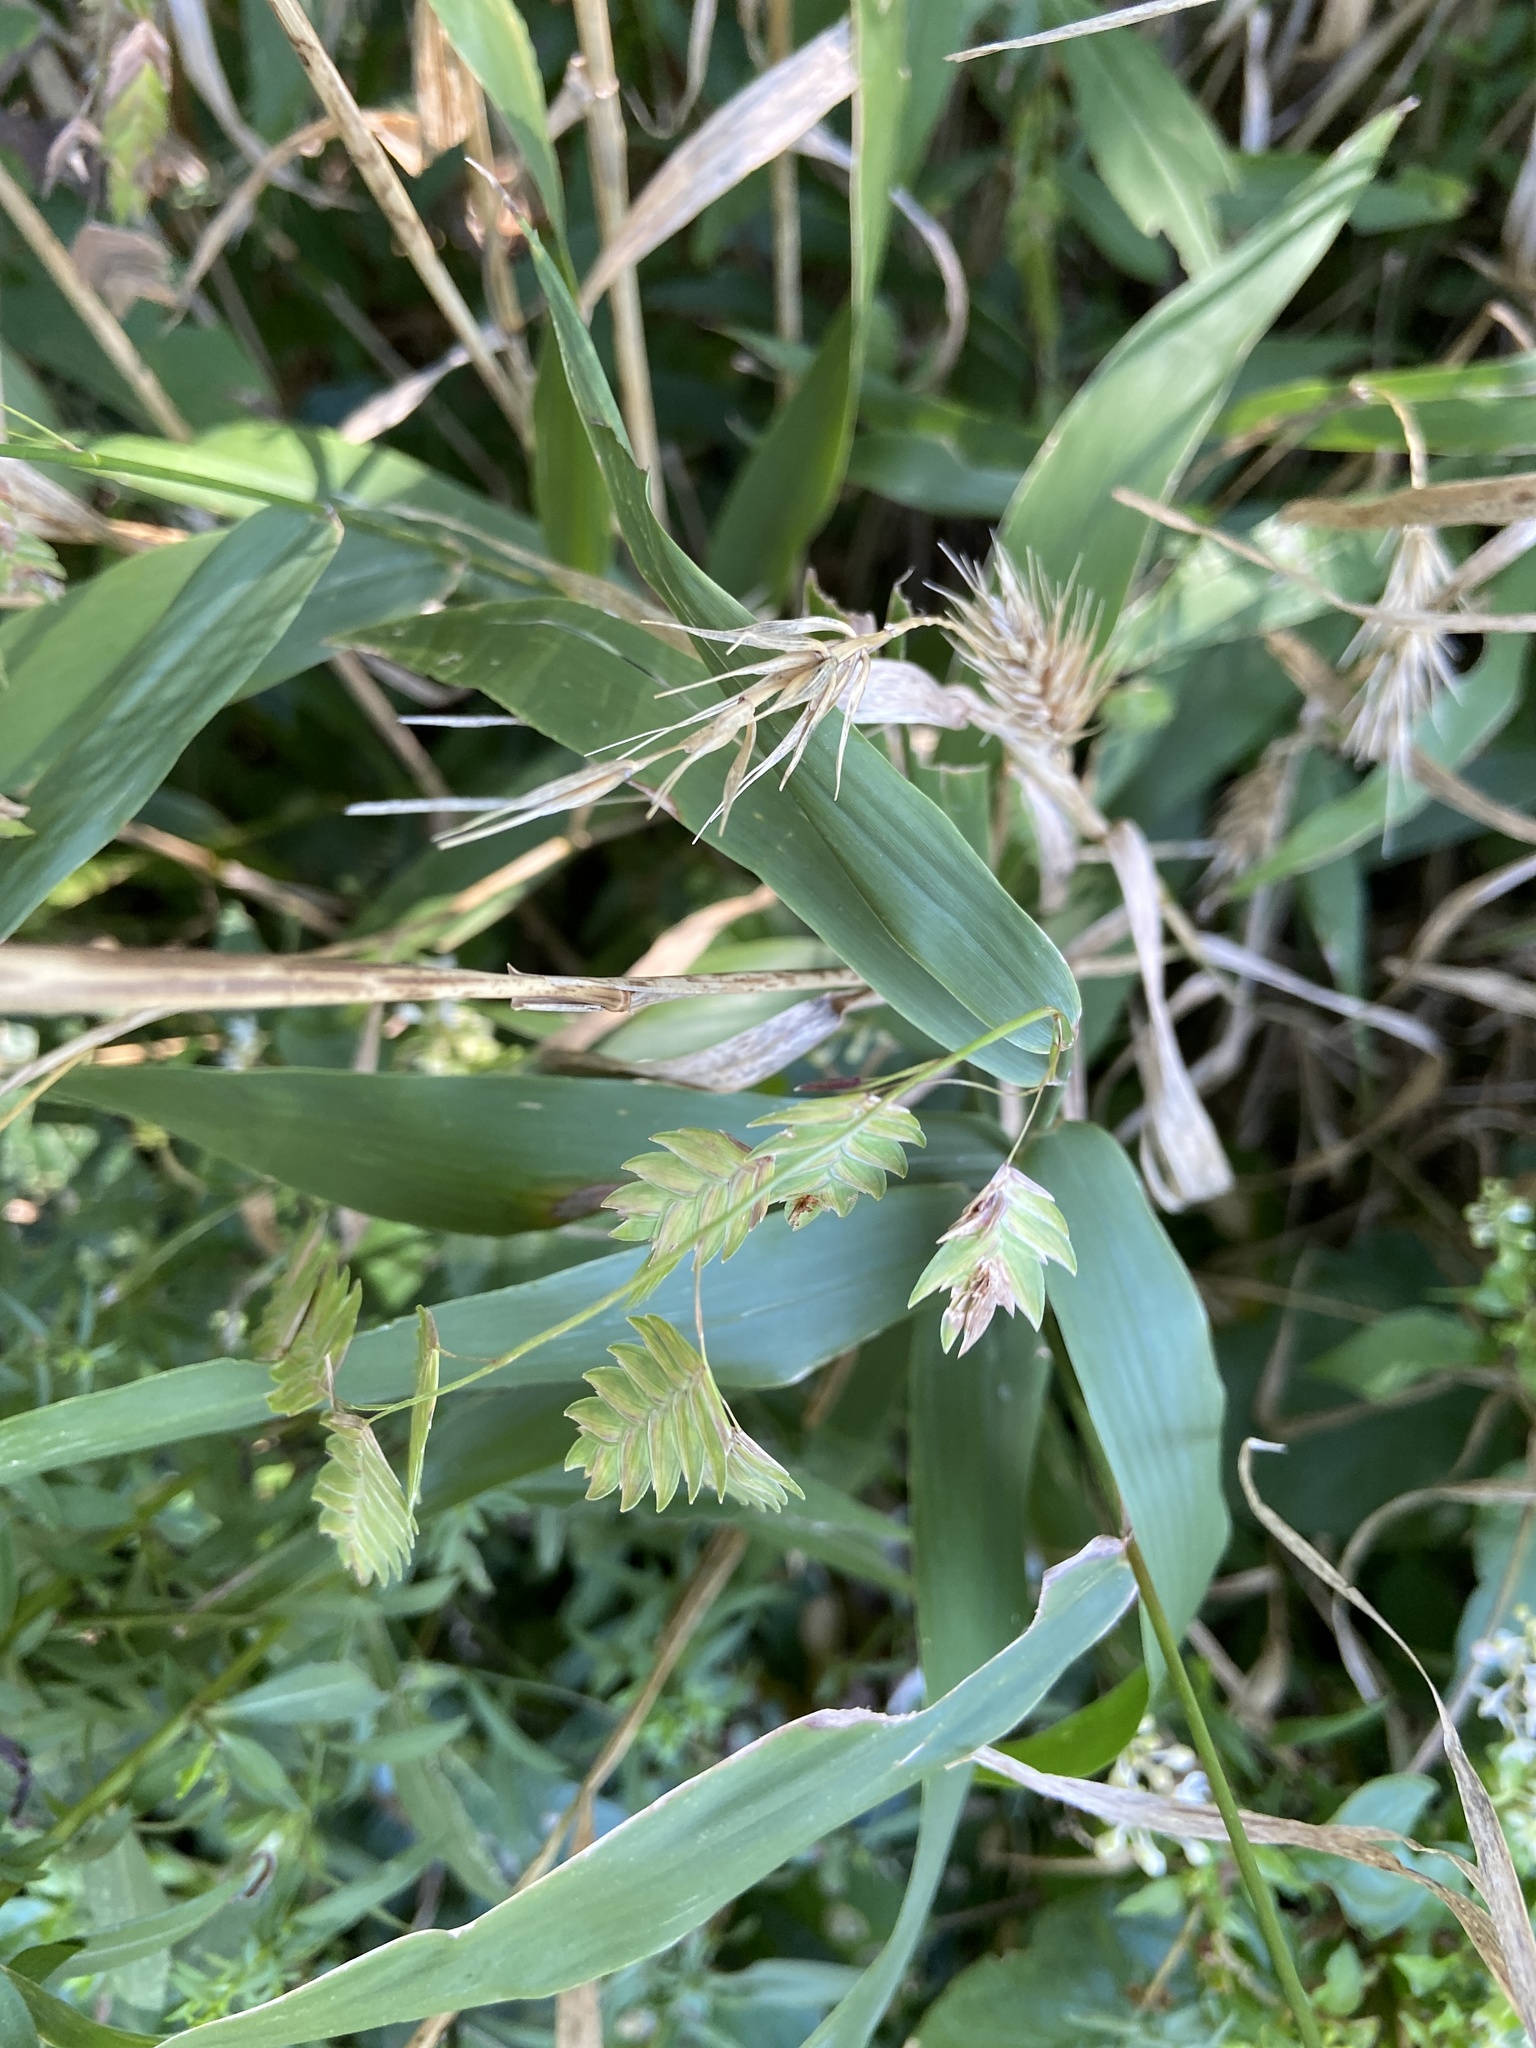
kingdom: Plantae
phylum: Tracheophyta
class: Liliopsida
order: Poales
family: Poaceae
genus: Chasmanthium
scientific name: Chasmanthium latifolium
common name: Broad-leaved chasmanthium
